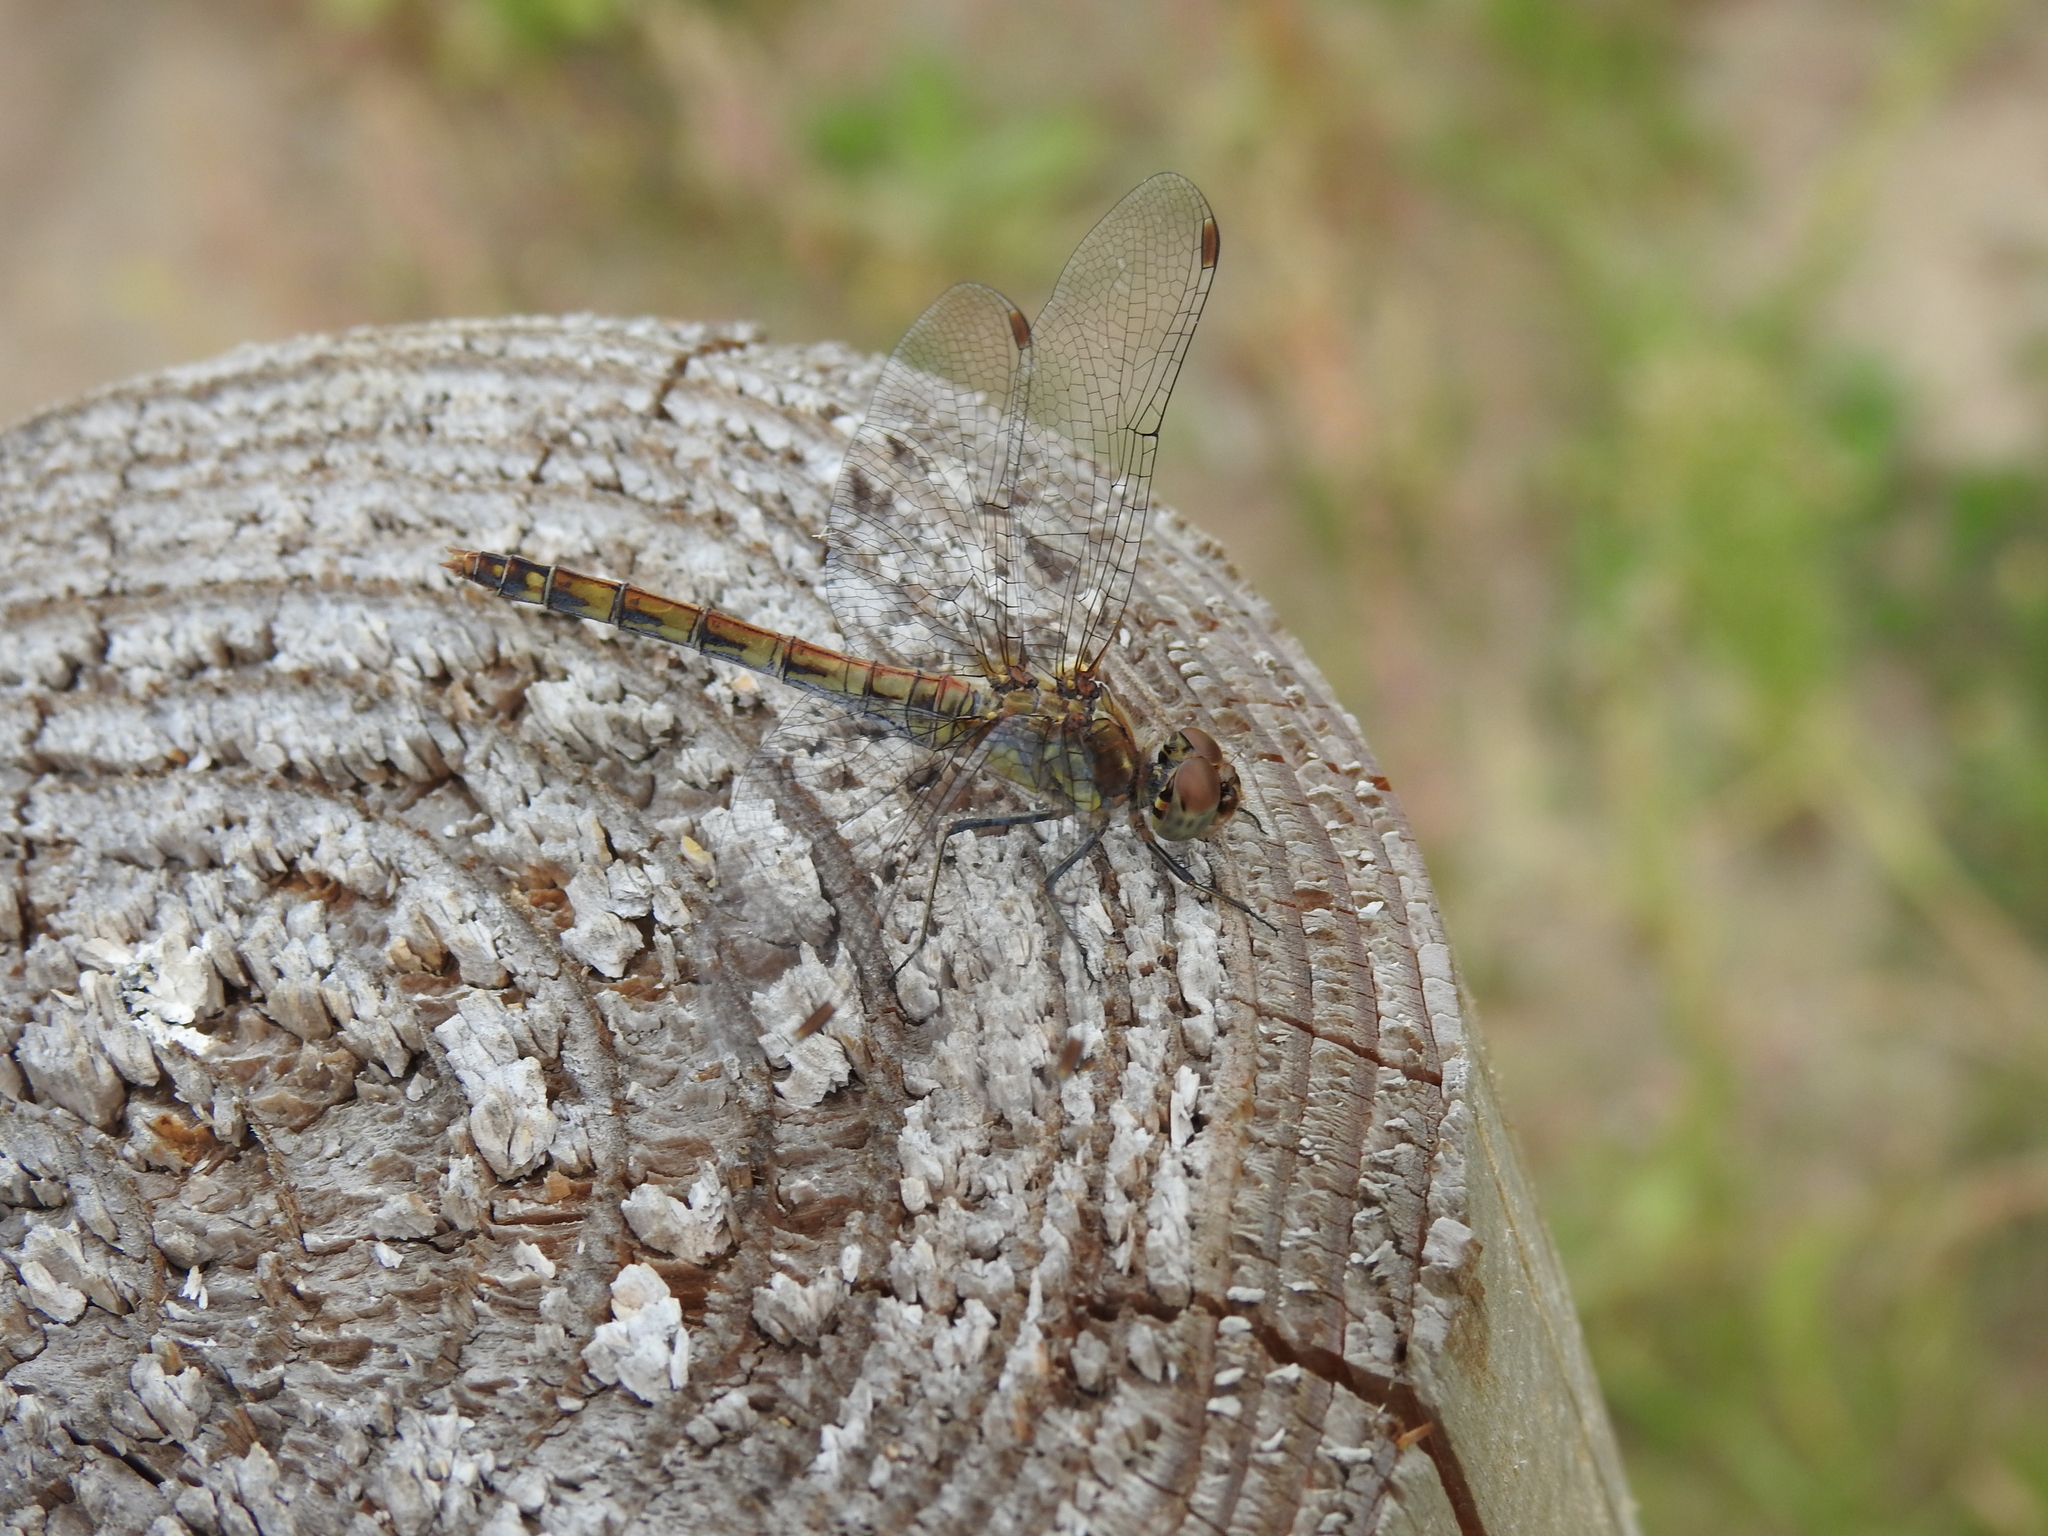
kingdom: Animalia
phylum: Arthropoda
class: Insecta
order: Odonata
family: Libellulidae
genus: Sympetrum
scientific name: Sympetrum striolatum
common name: Common darter
